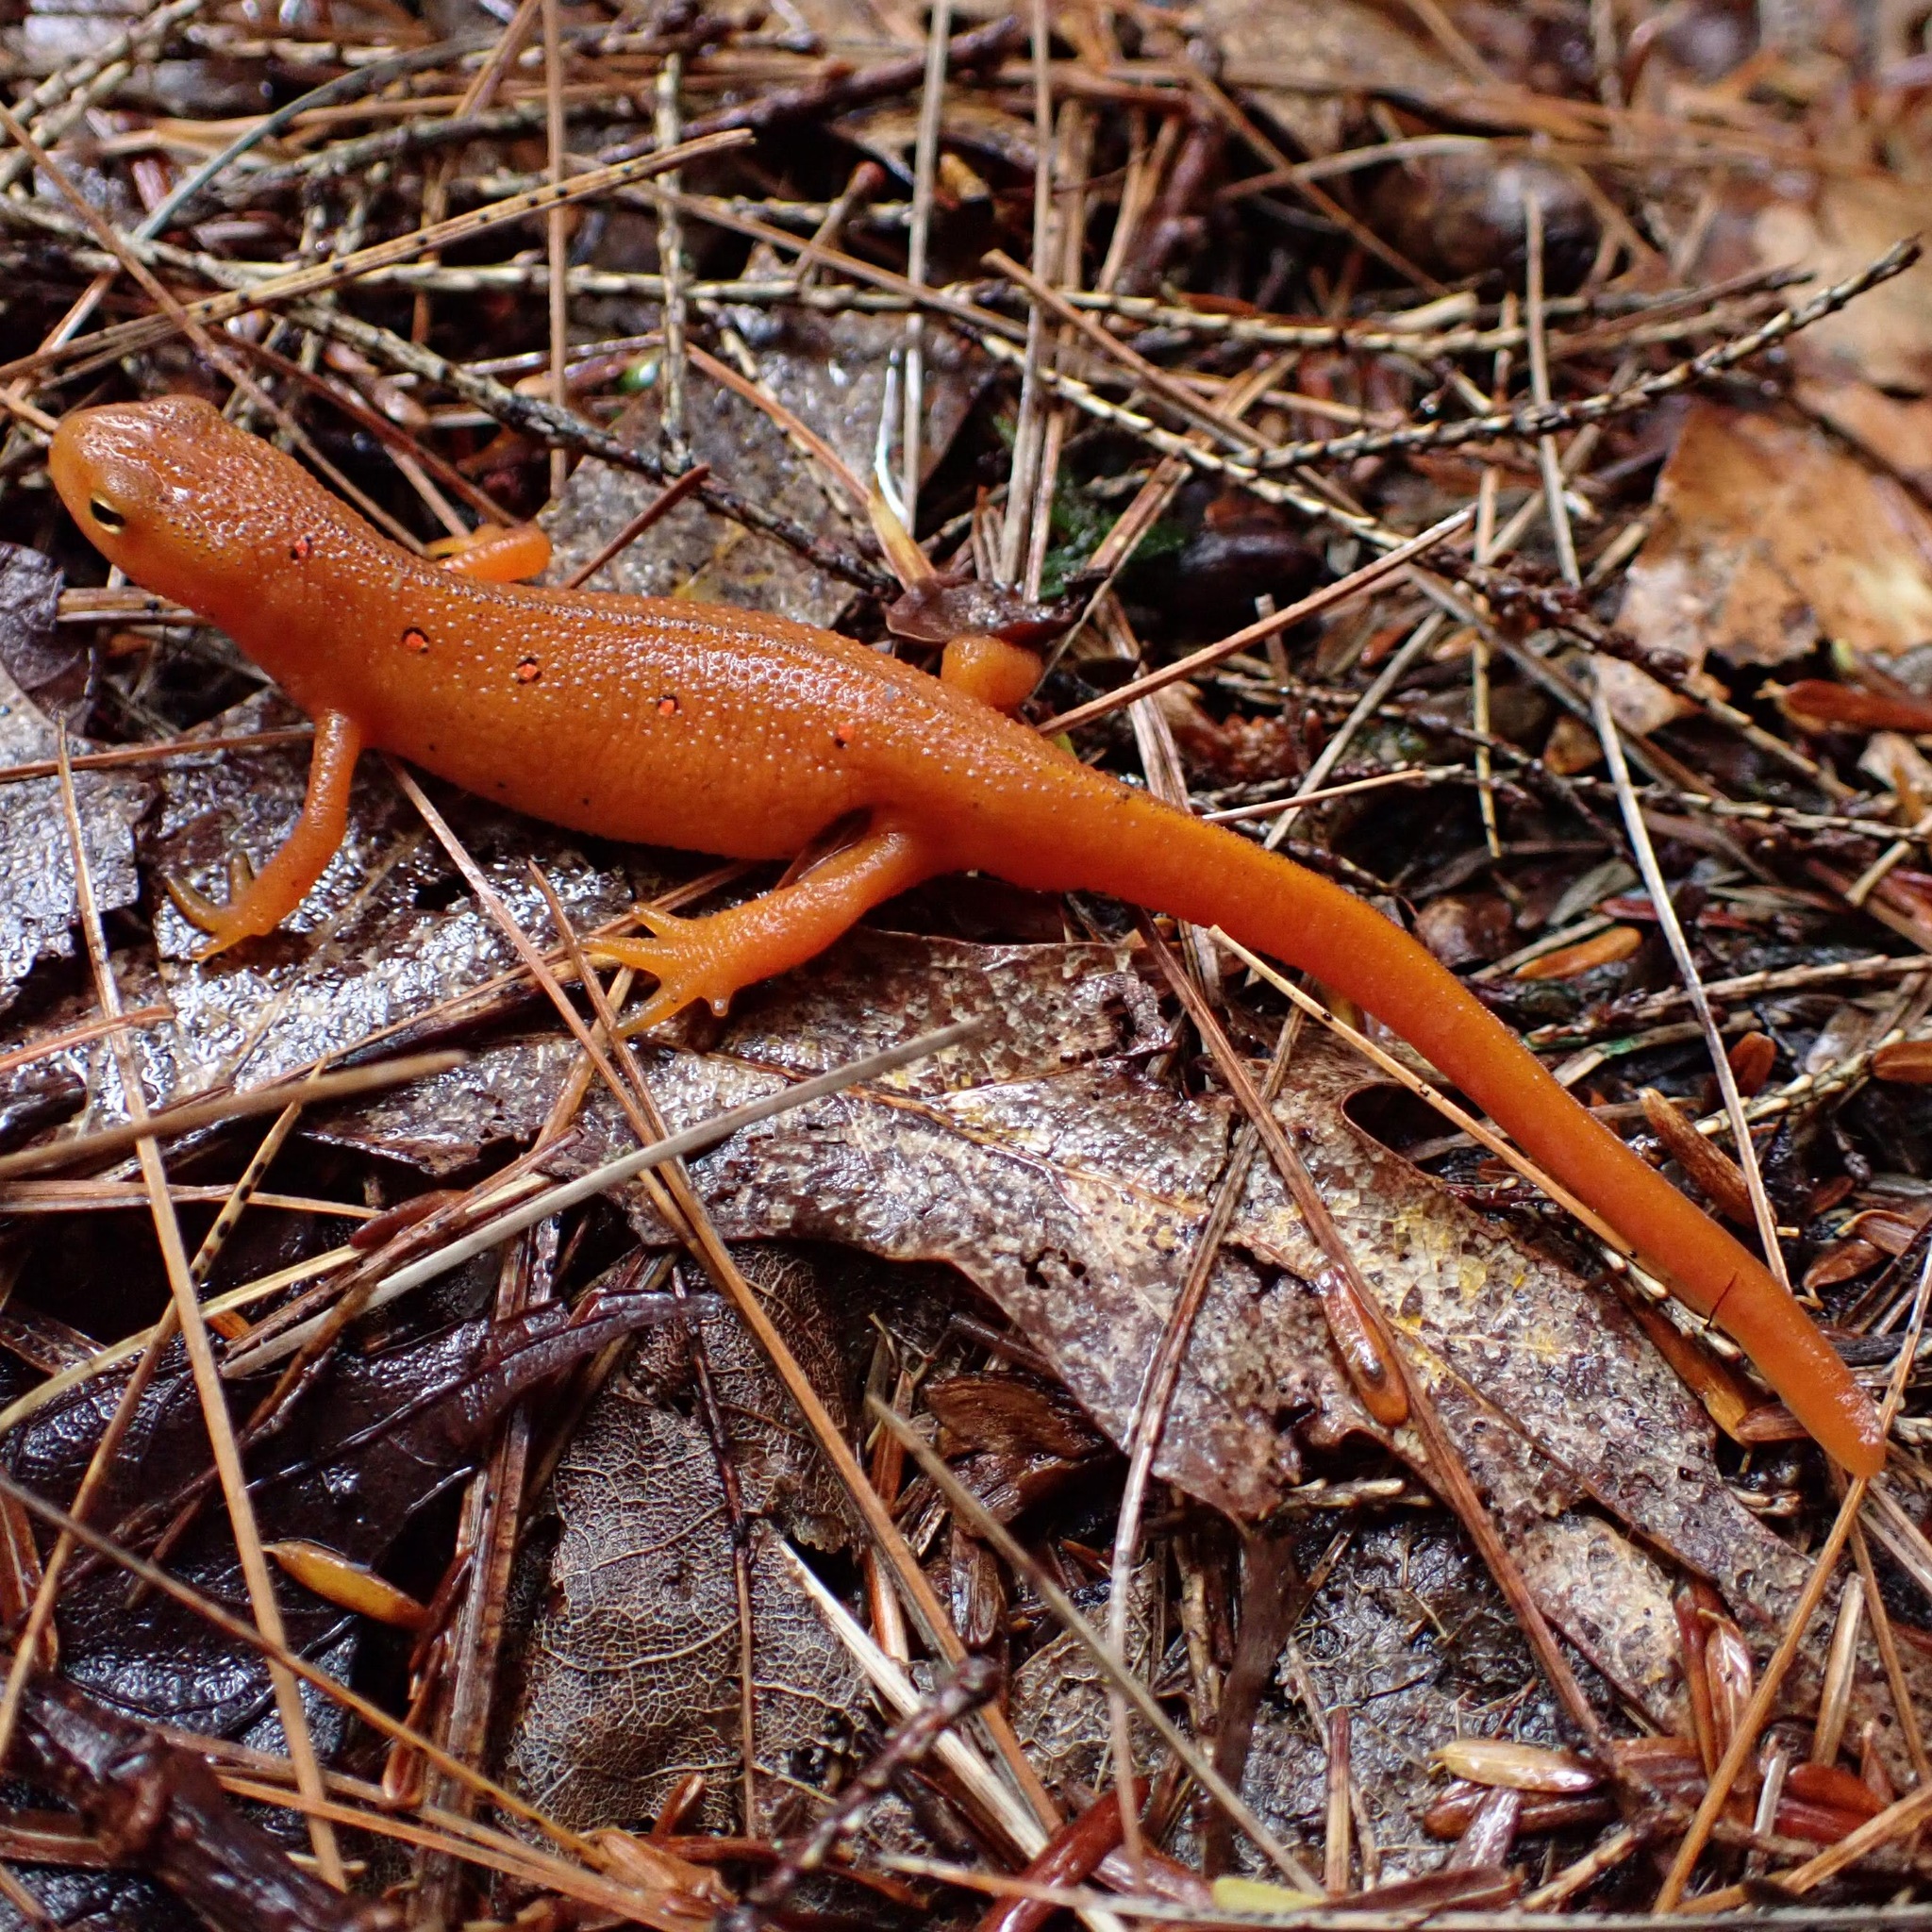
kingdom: Animalia
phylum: Chordata
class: Amphibia
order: Caudata
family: Salamandridae
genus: Notophthalmus
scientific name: Notophthalmus viridescens
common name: Eastern newt
